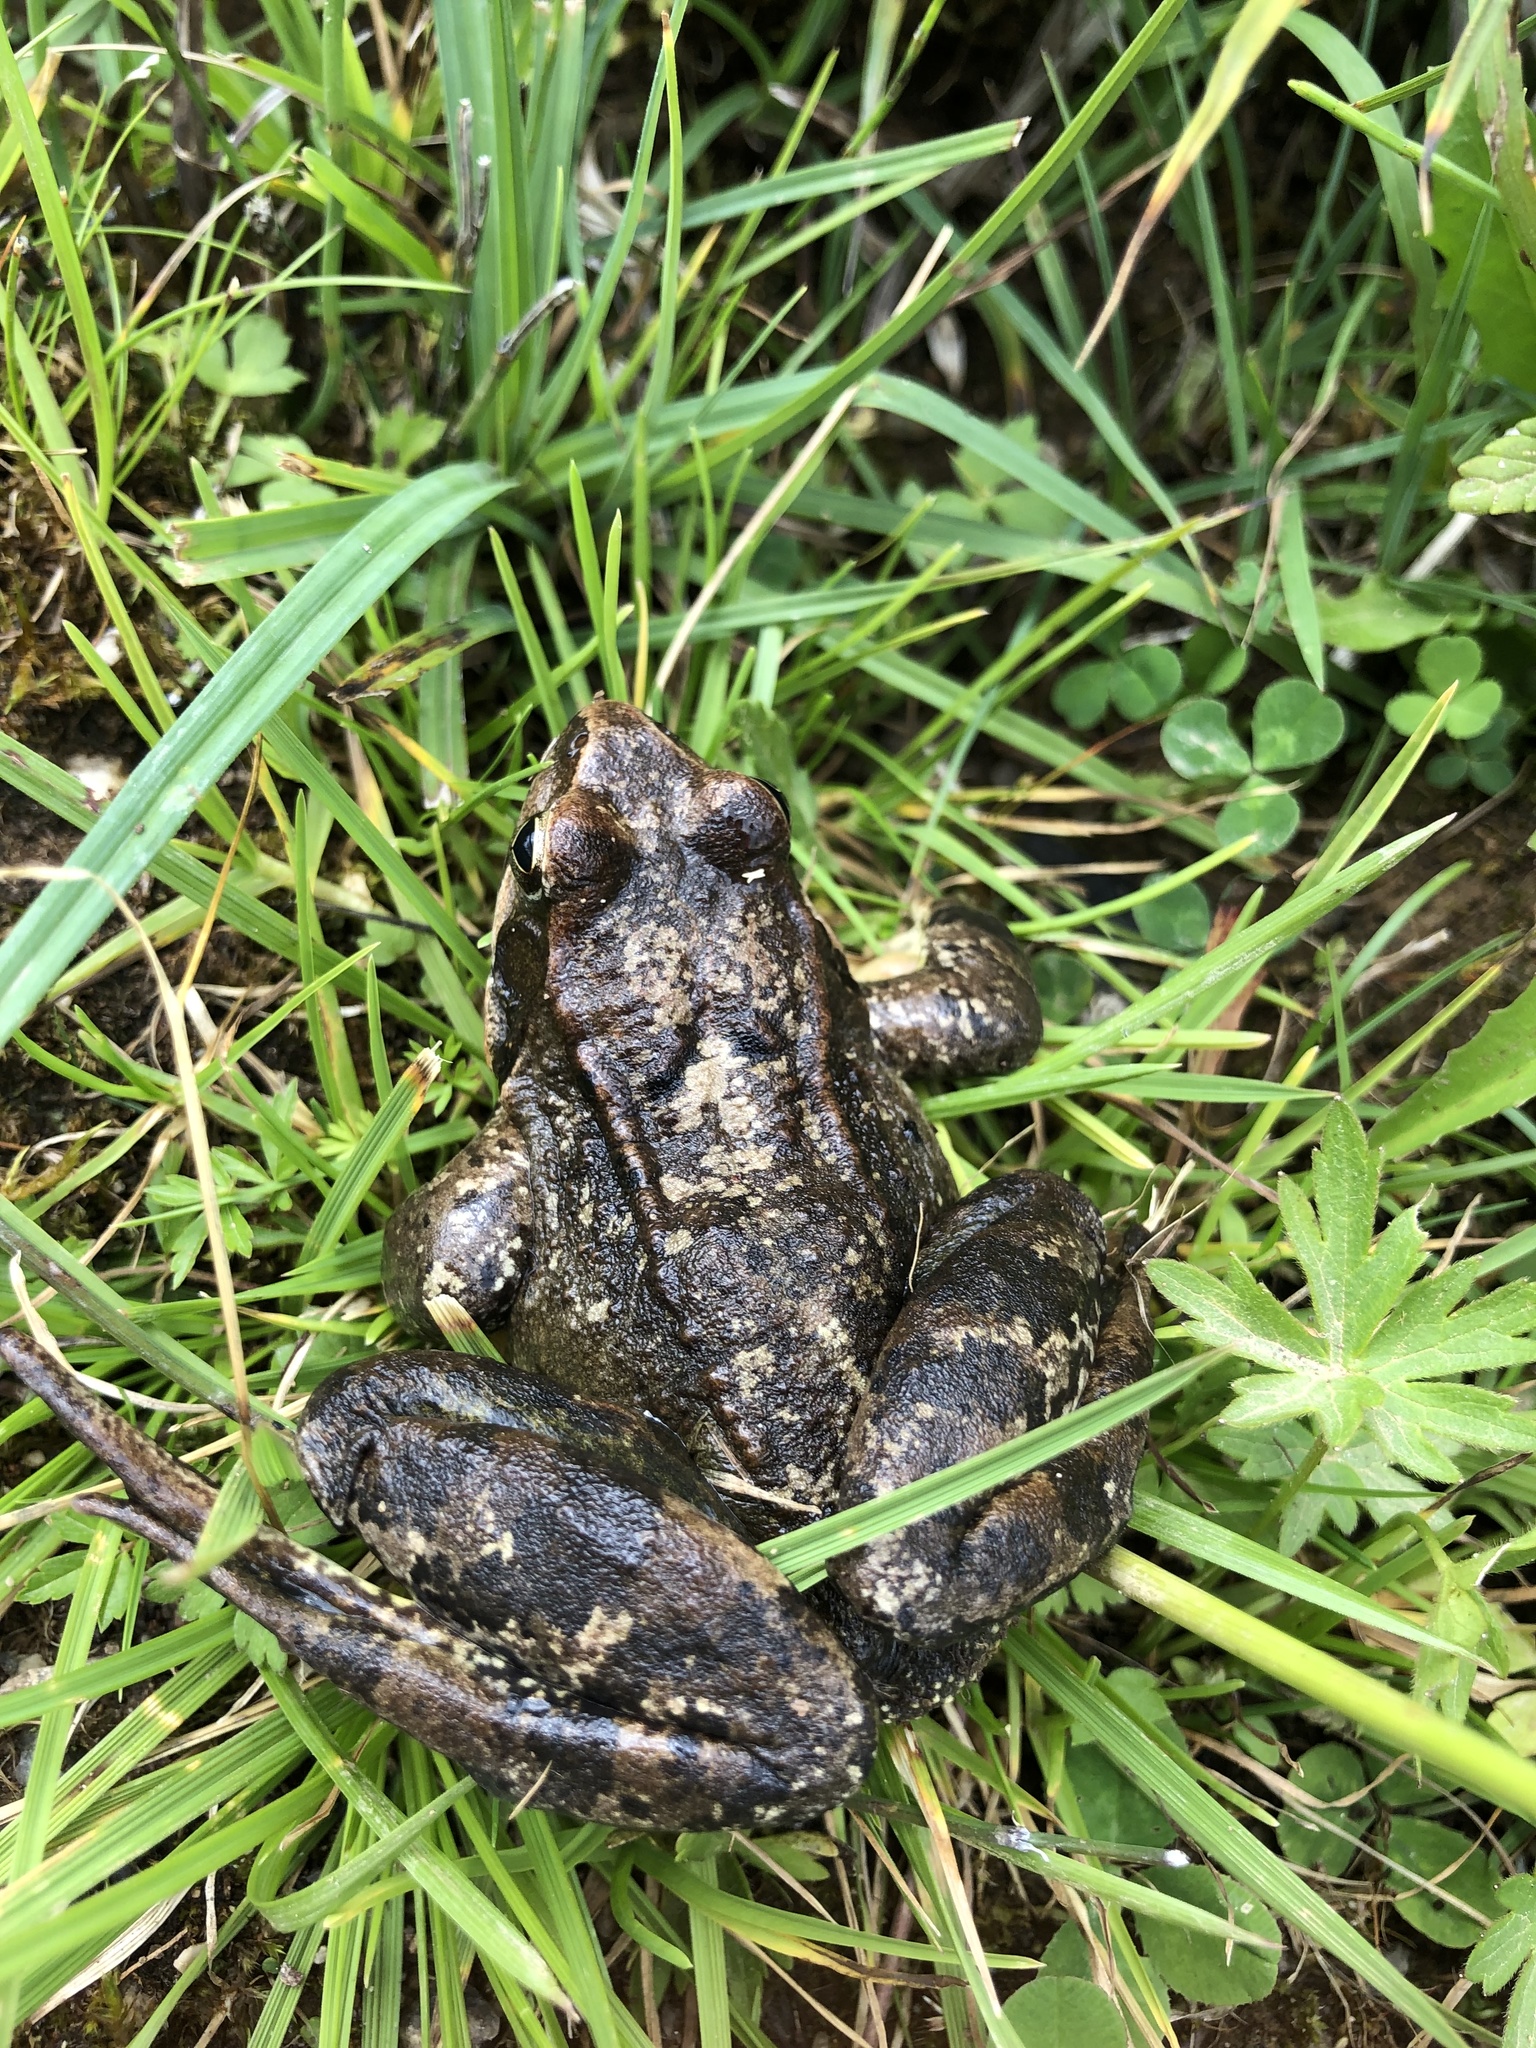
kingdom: Animalia
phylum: Chordata
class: Amphibia
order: Anura
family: Ranidae
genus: Rana
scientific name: Rana temporaria
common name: Common frog
